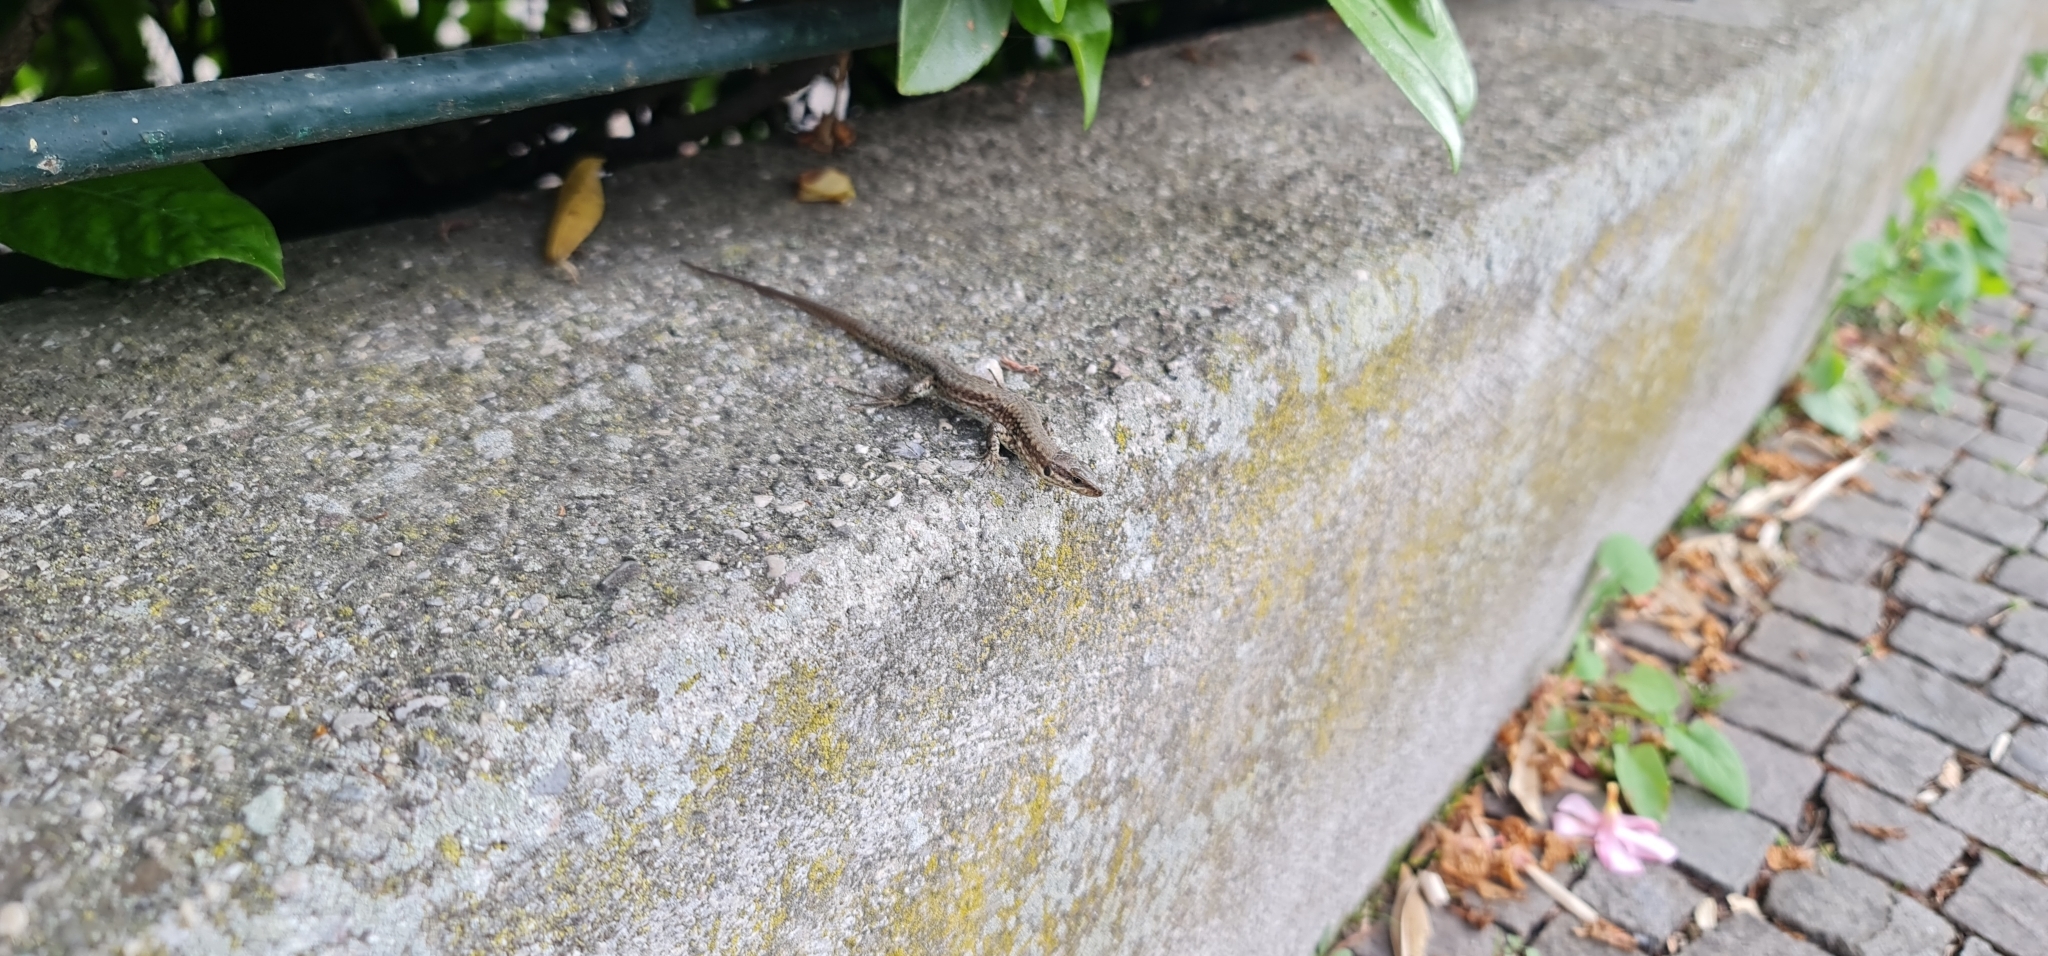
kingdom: Animalia
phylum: Chordata
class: Squamata
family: Lacertidae
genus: Podarcis
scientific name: Podarcis muralis
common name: Common wall lizard
